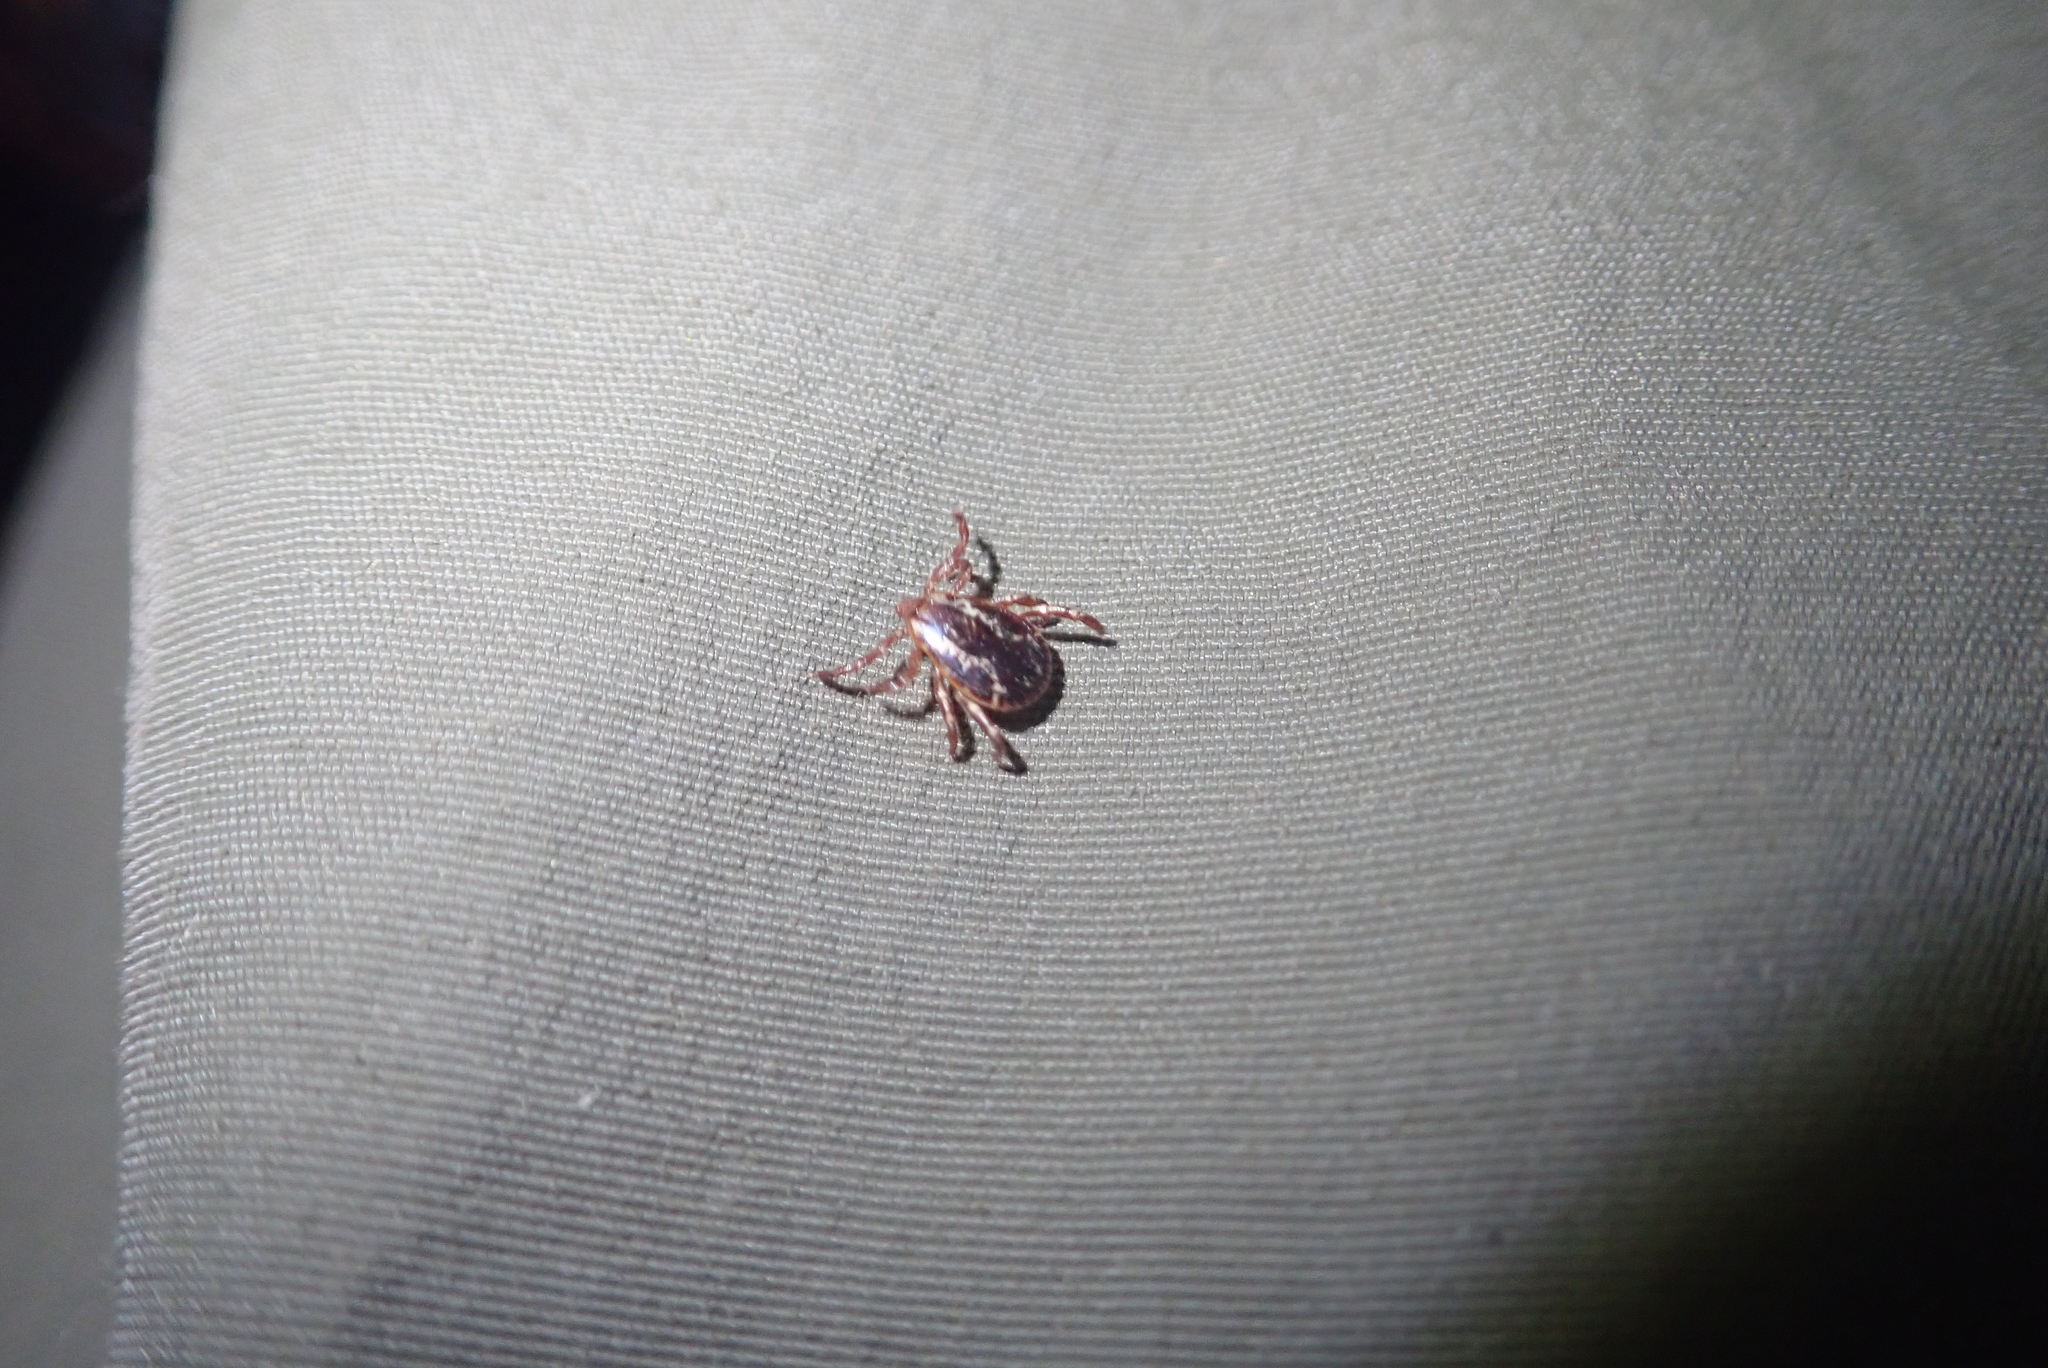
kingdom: Animalia
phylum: Arthropoda
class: Arachnida
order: Ixodida
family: Ixodidae
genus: Dermacentor
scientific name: Dermacentor variabilis
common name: American dog tick
